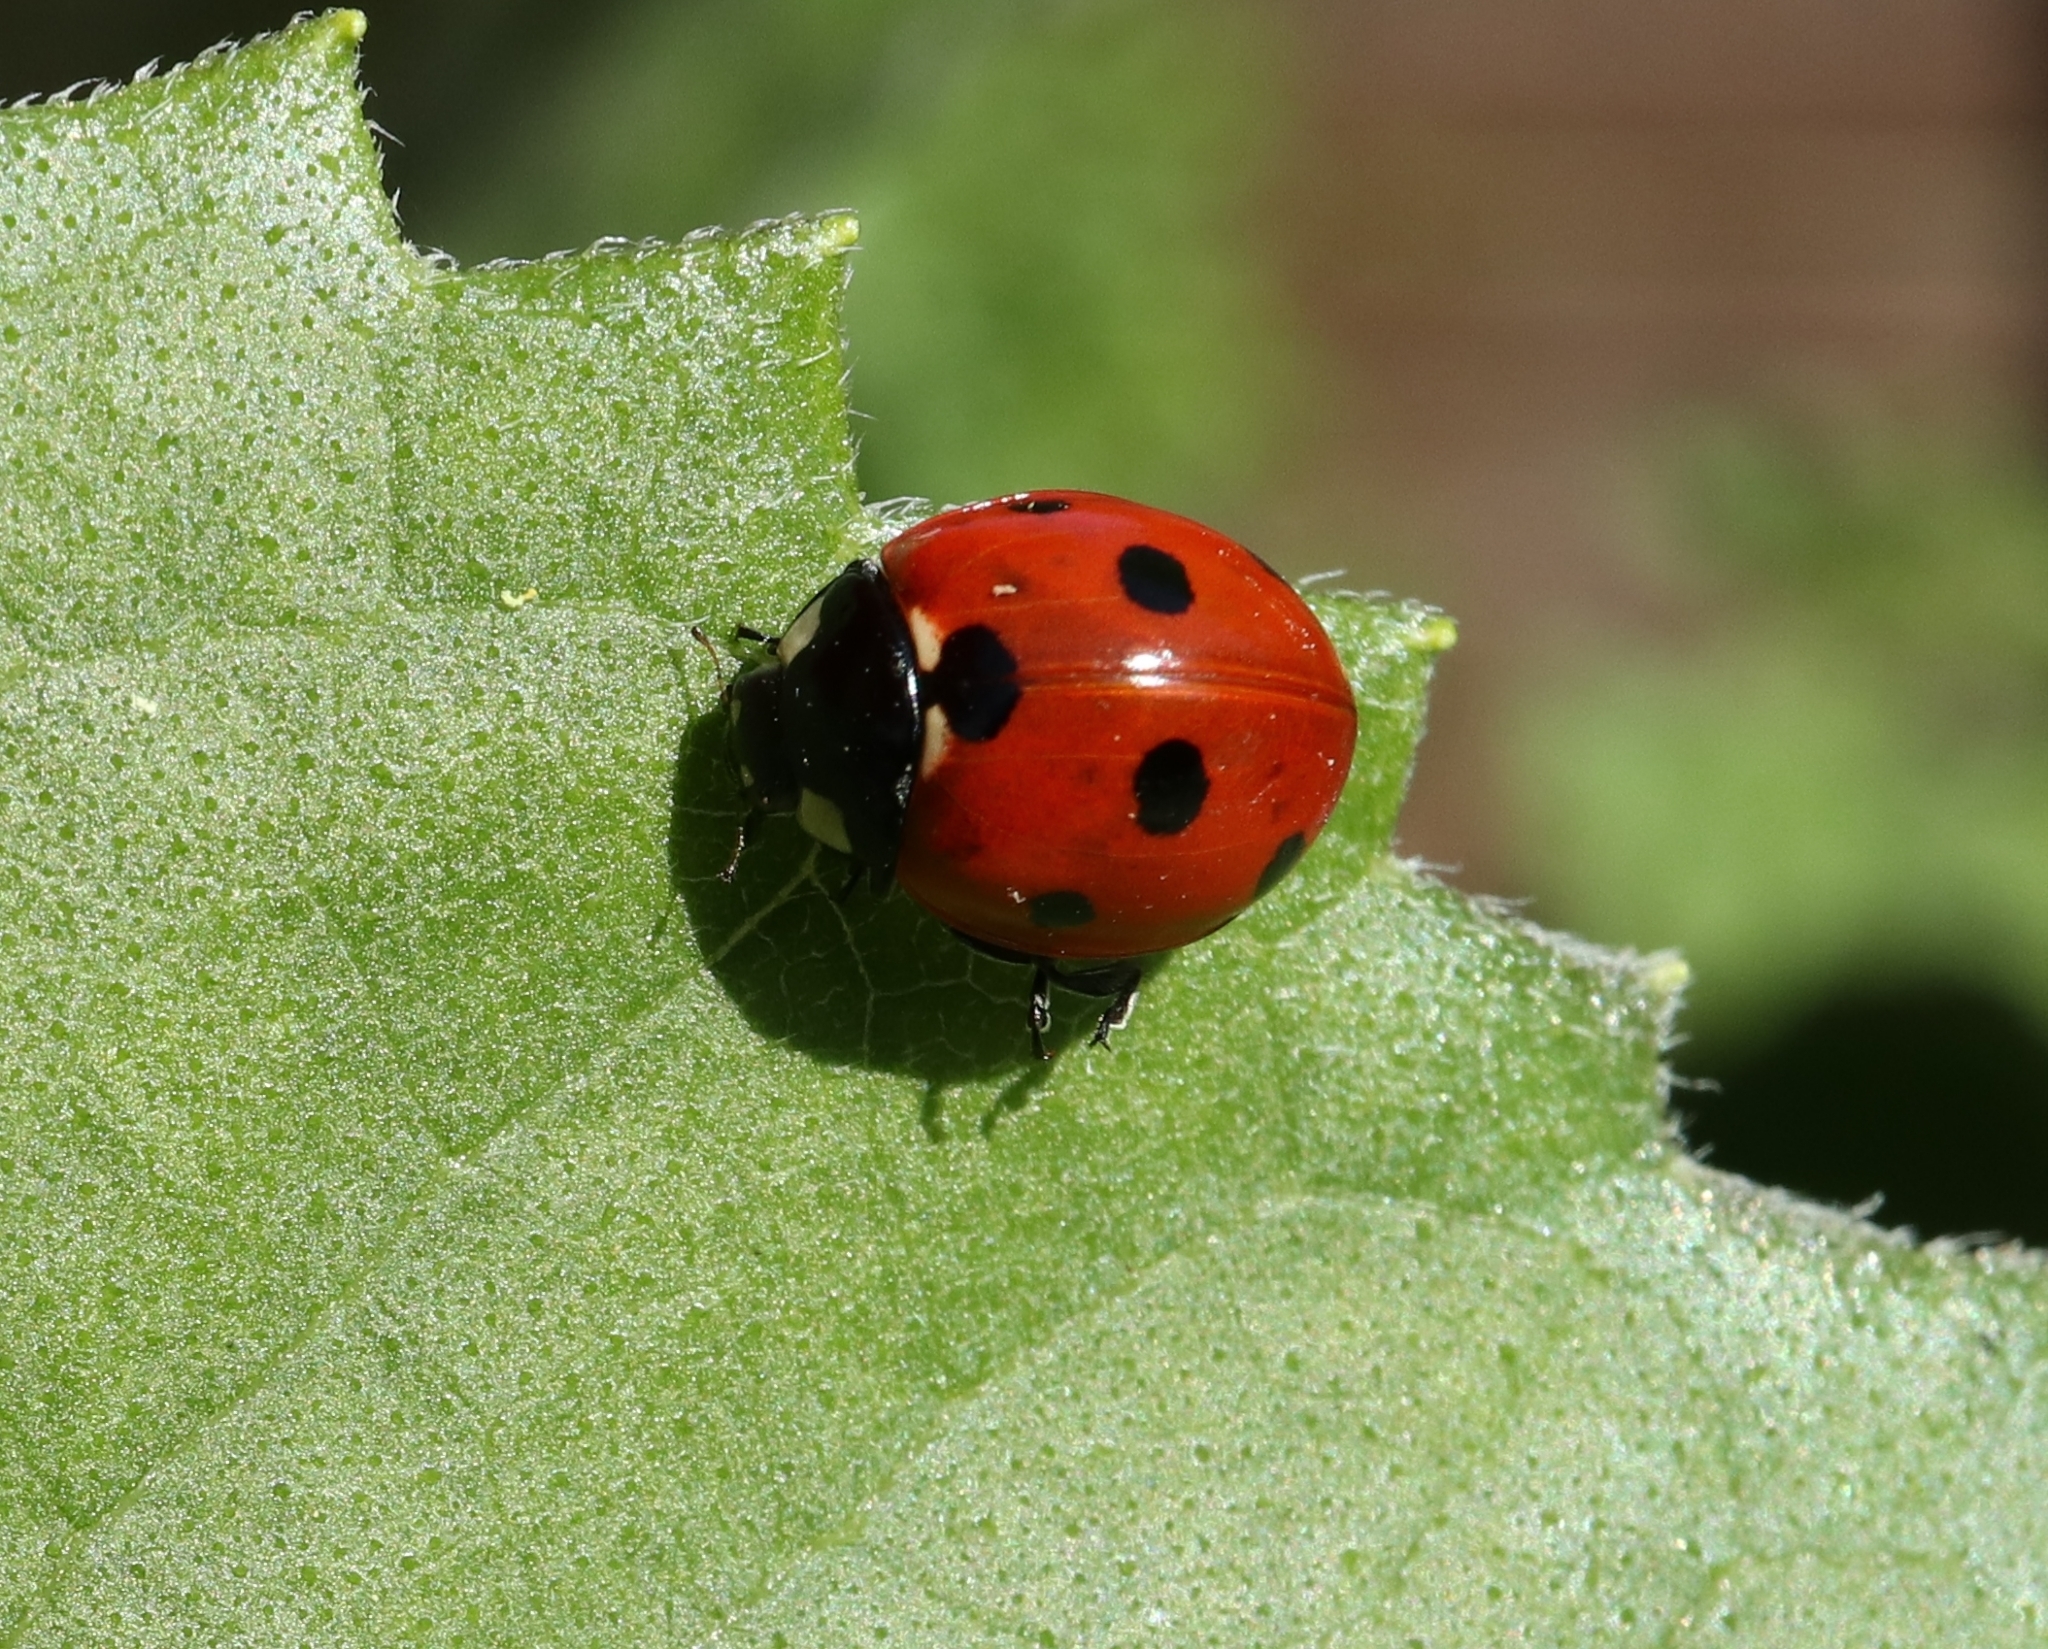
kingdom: Animalia
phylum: Arthropoda
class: Insecta
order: Coleoptera
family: Coccinellidae
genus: Coccinella
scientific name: Coccinella septempunctata
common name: Sevenspotted lady beetle
